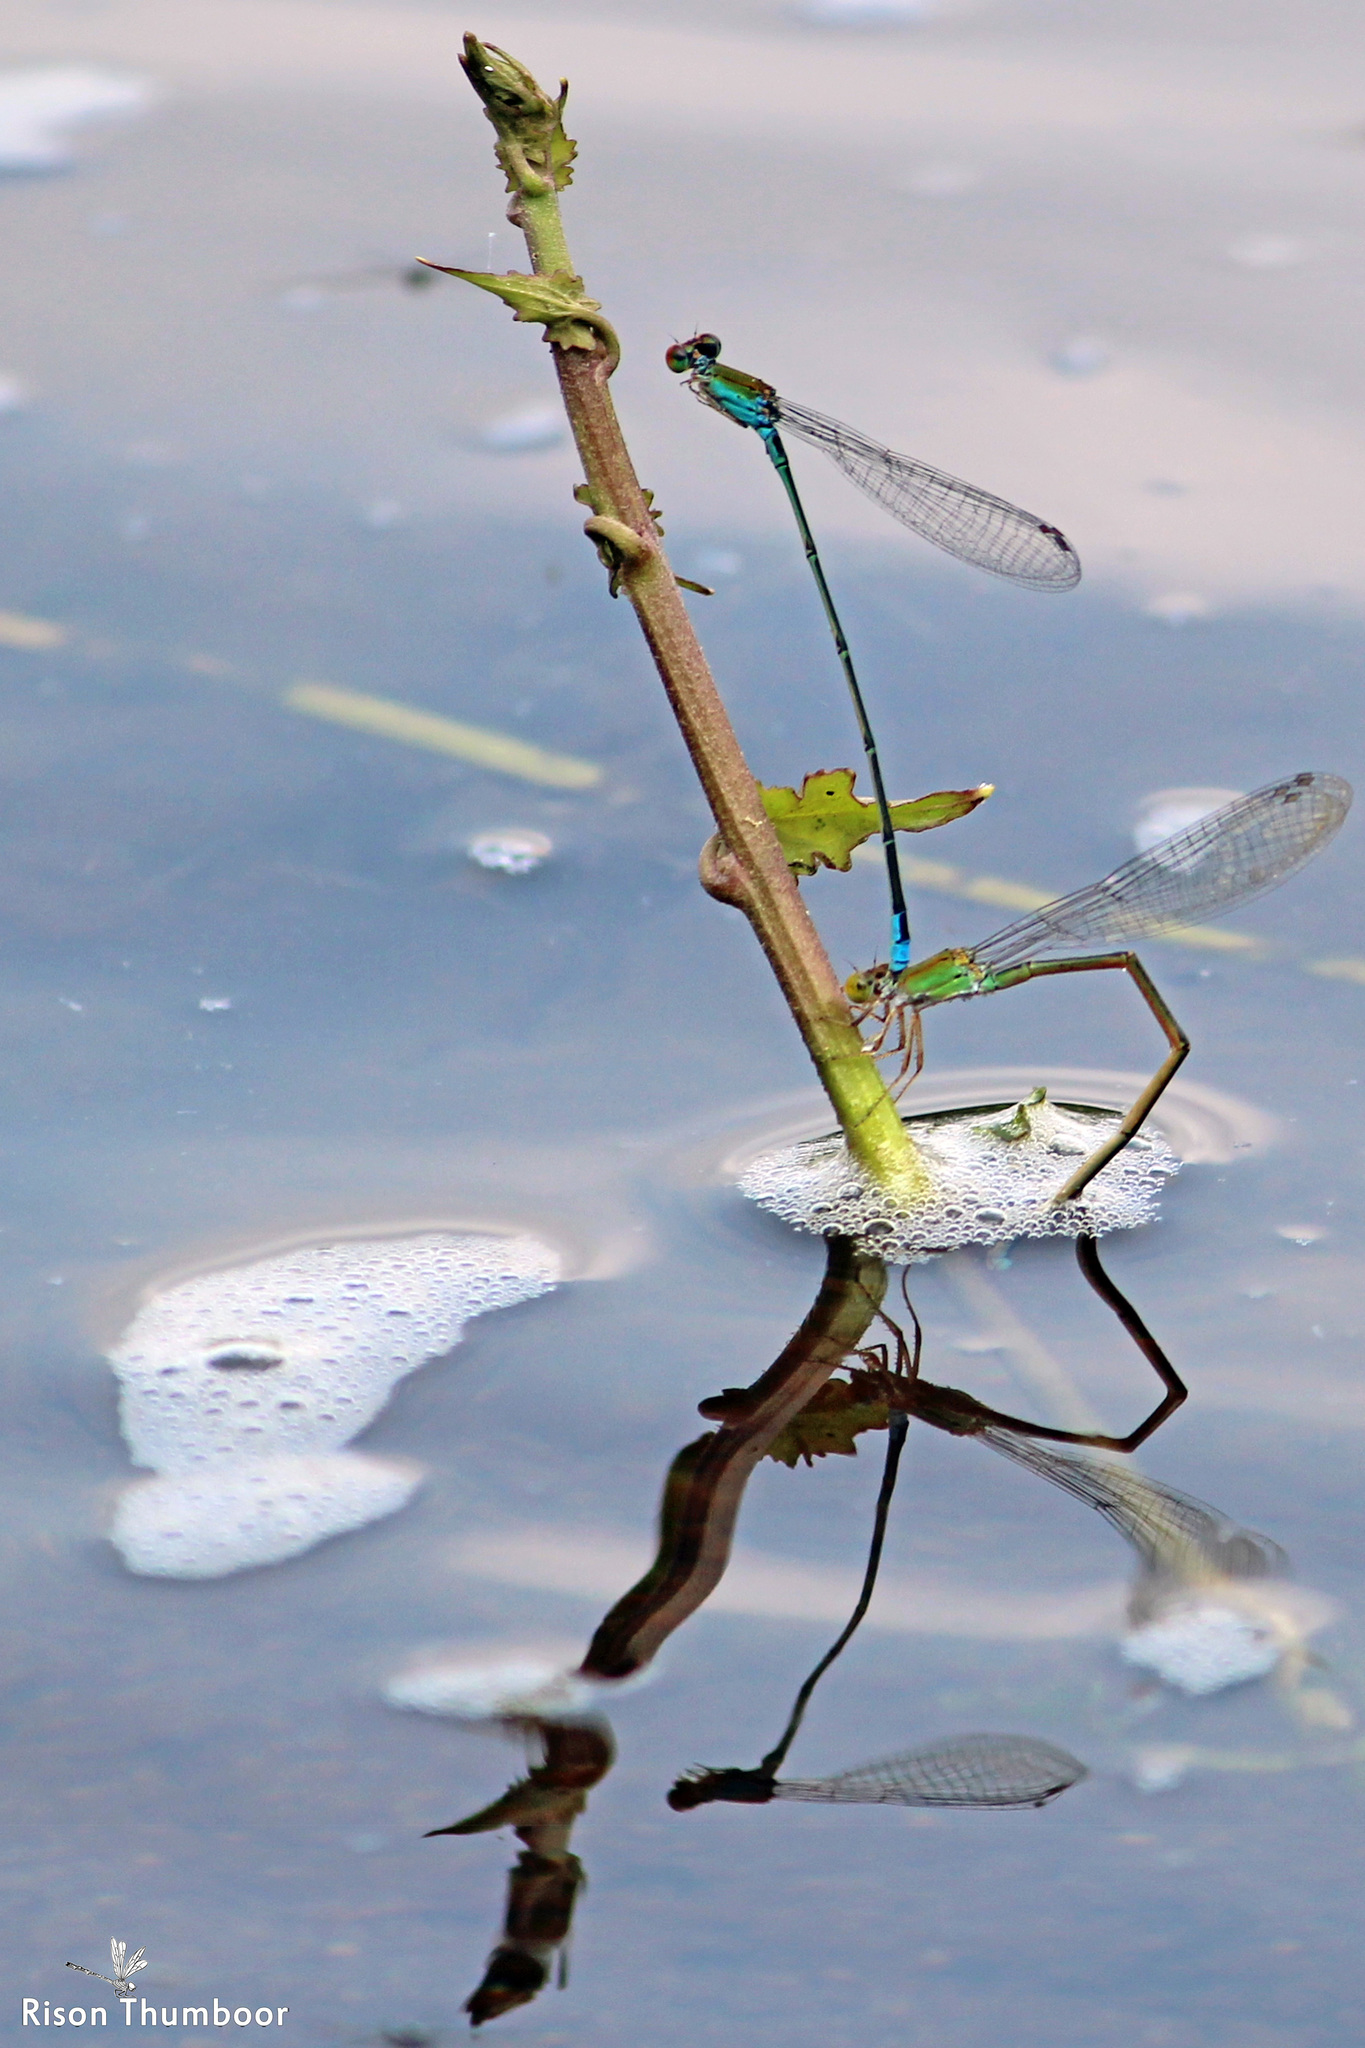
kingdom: Animalia
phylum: Arthropoda
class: Insecta
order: Odonata
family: Coenagrionidae
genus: Pseudagrion
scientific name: Pseudagrion rubriceps
